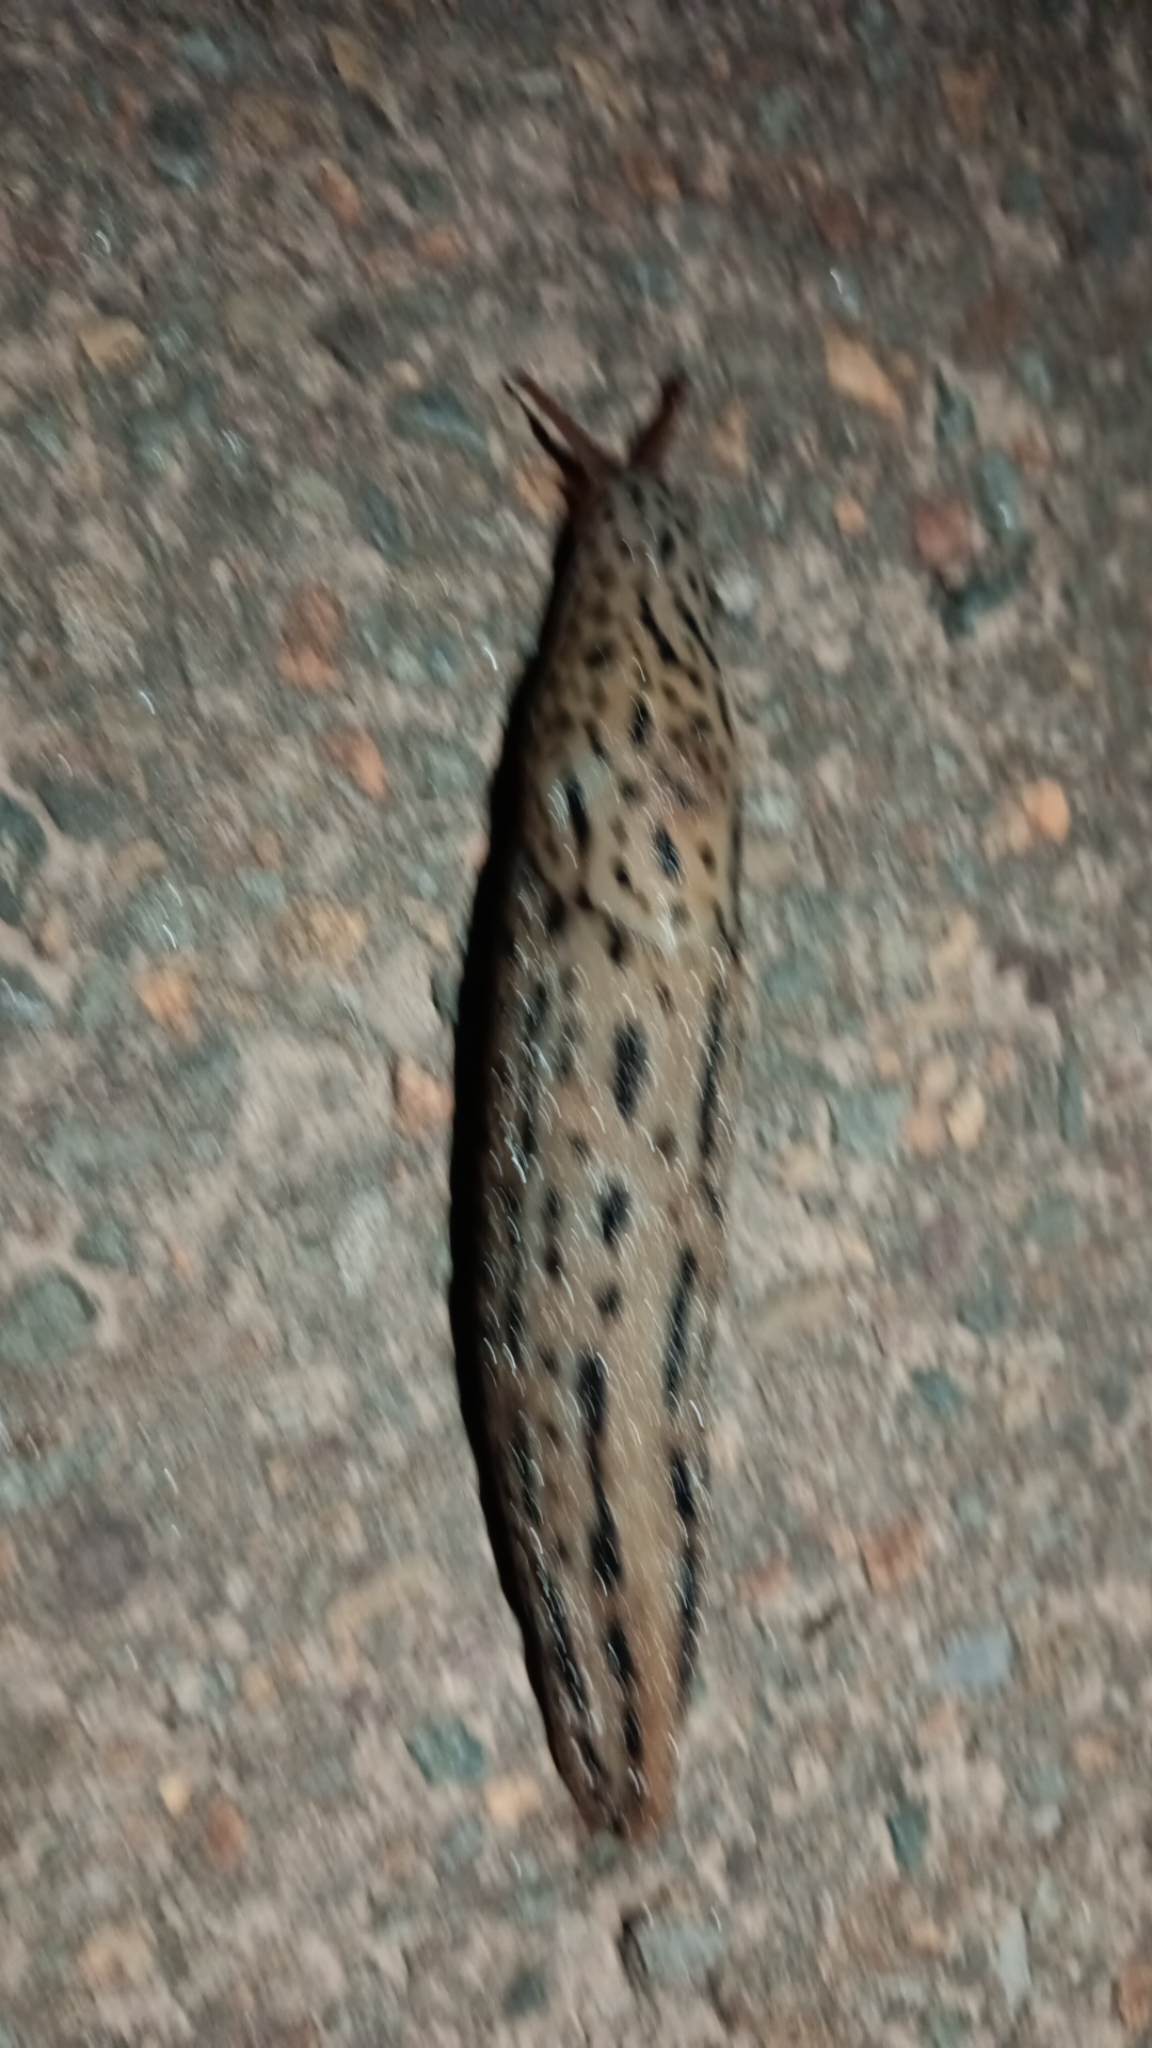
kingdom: Animalia
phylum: Mollusca
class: Gastropoda
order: Stylommatophora
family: Limacidae
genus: Limax
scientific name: Limax maximus
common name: Great grey slug
